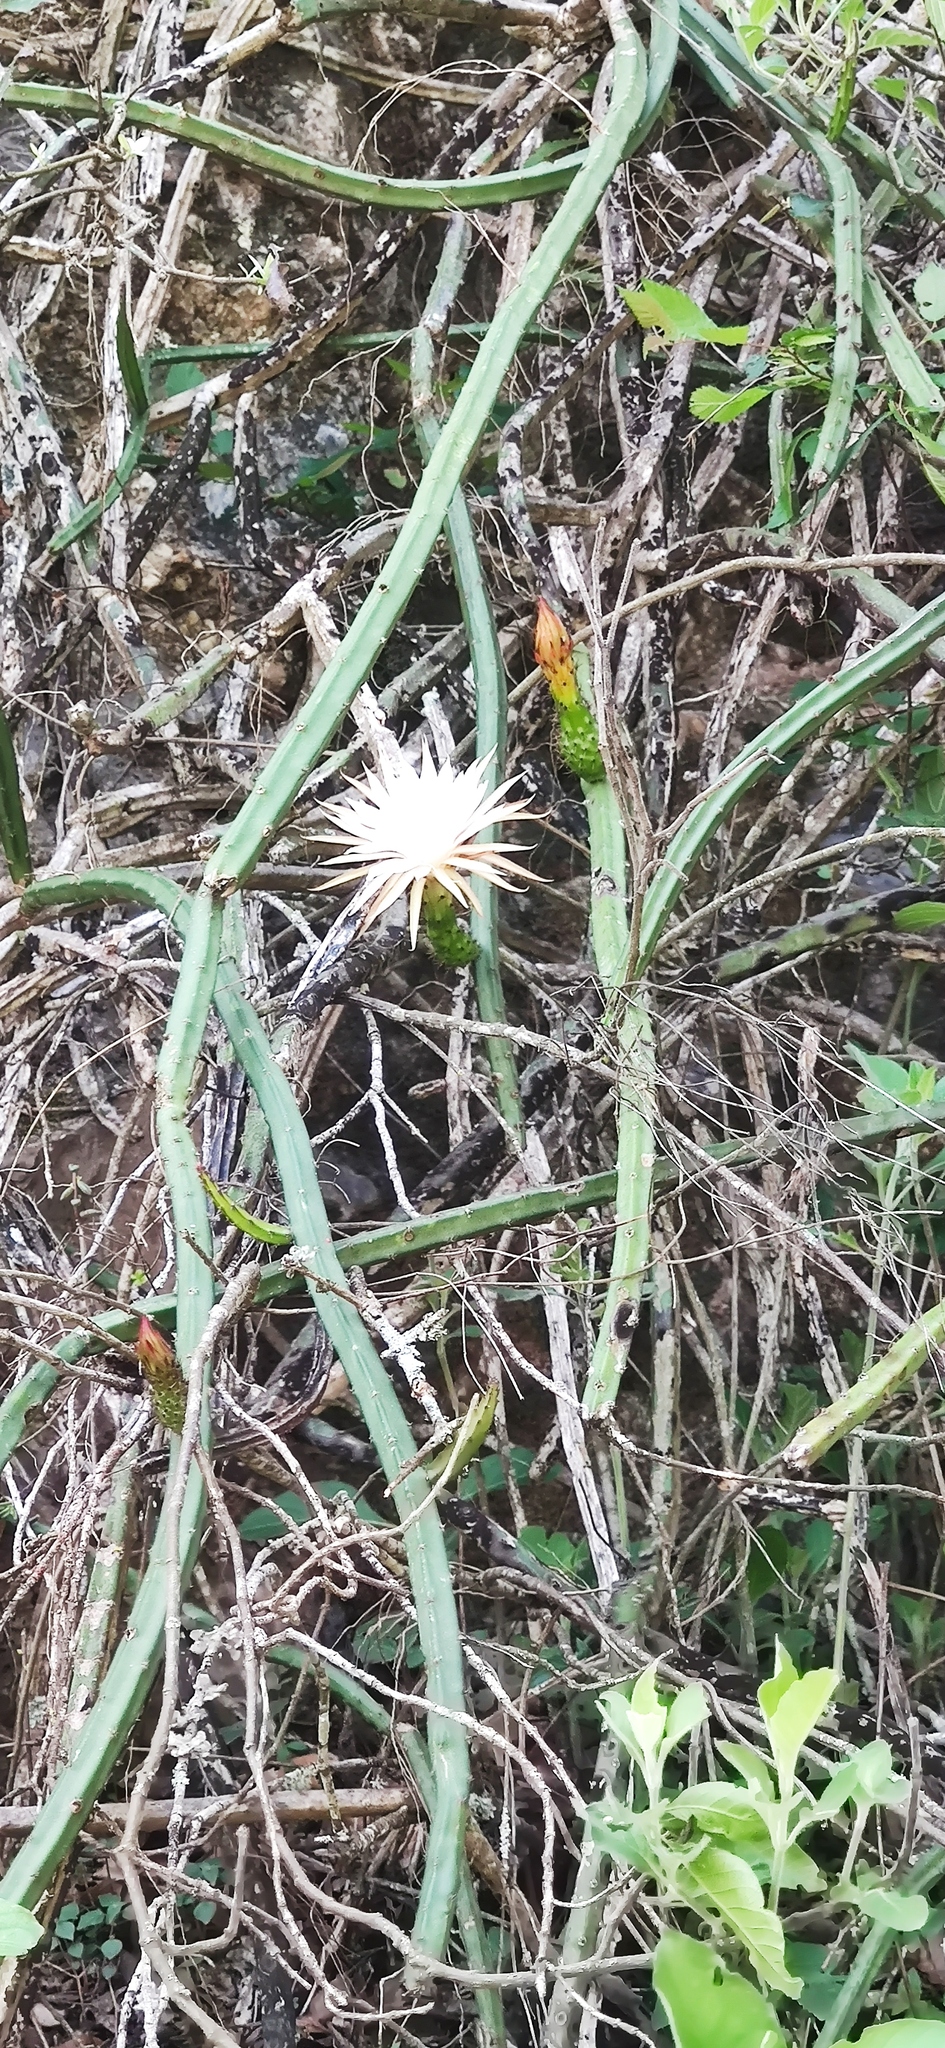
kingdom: Plantae
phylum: Tracheophyta
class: Magnoliopsida
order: Caryophyllales
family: Cactaceae
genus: Selenicereus
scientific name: Selenicereus spinulosus
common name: Nightblooming cereus
